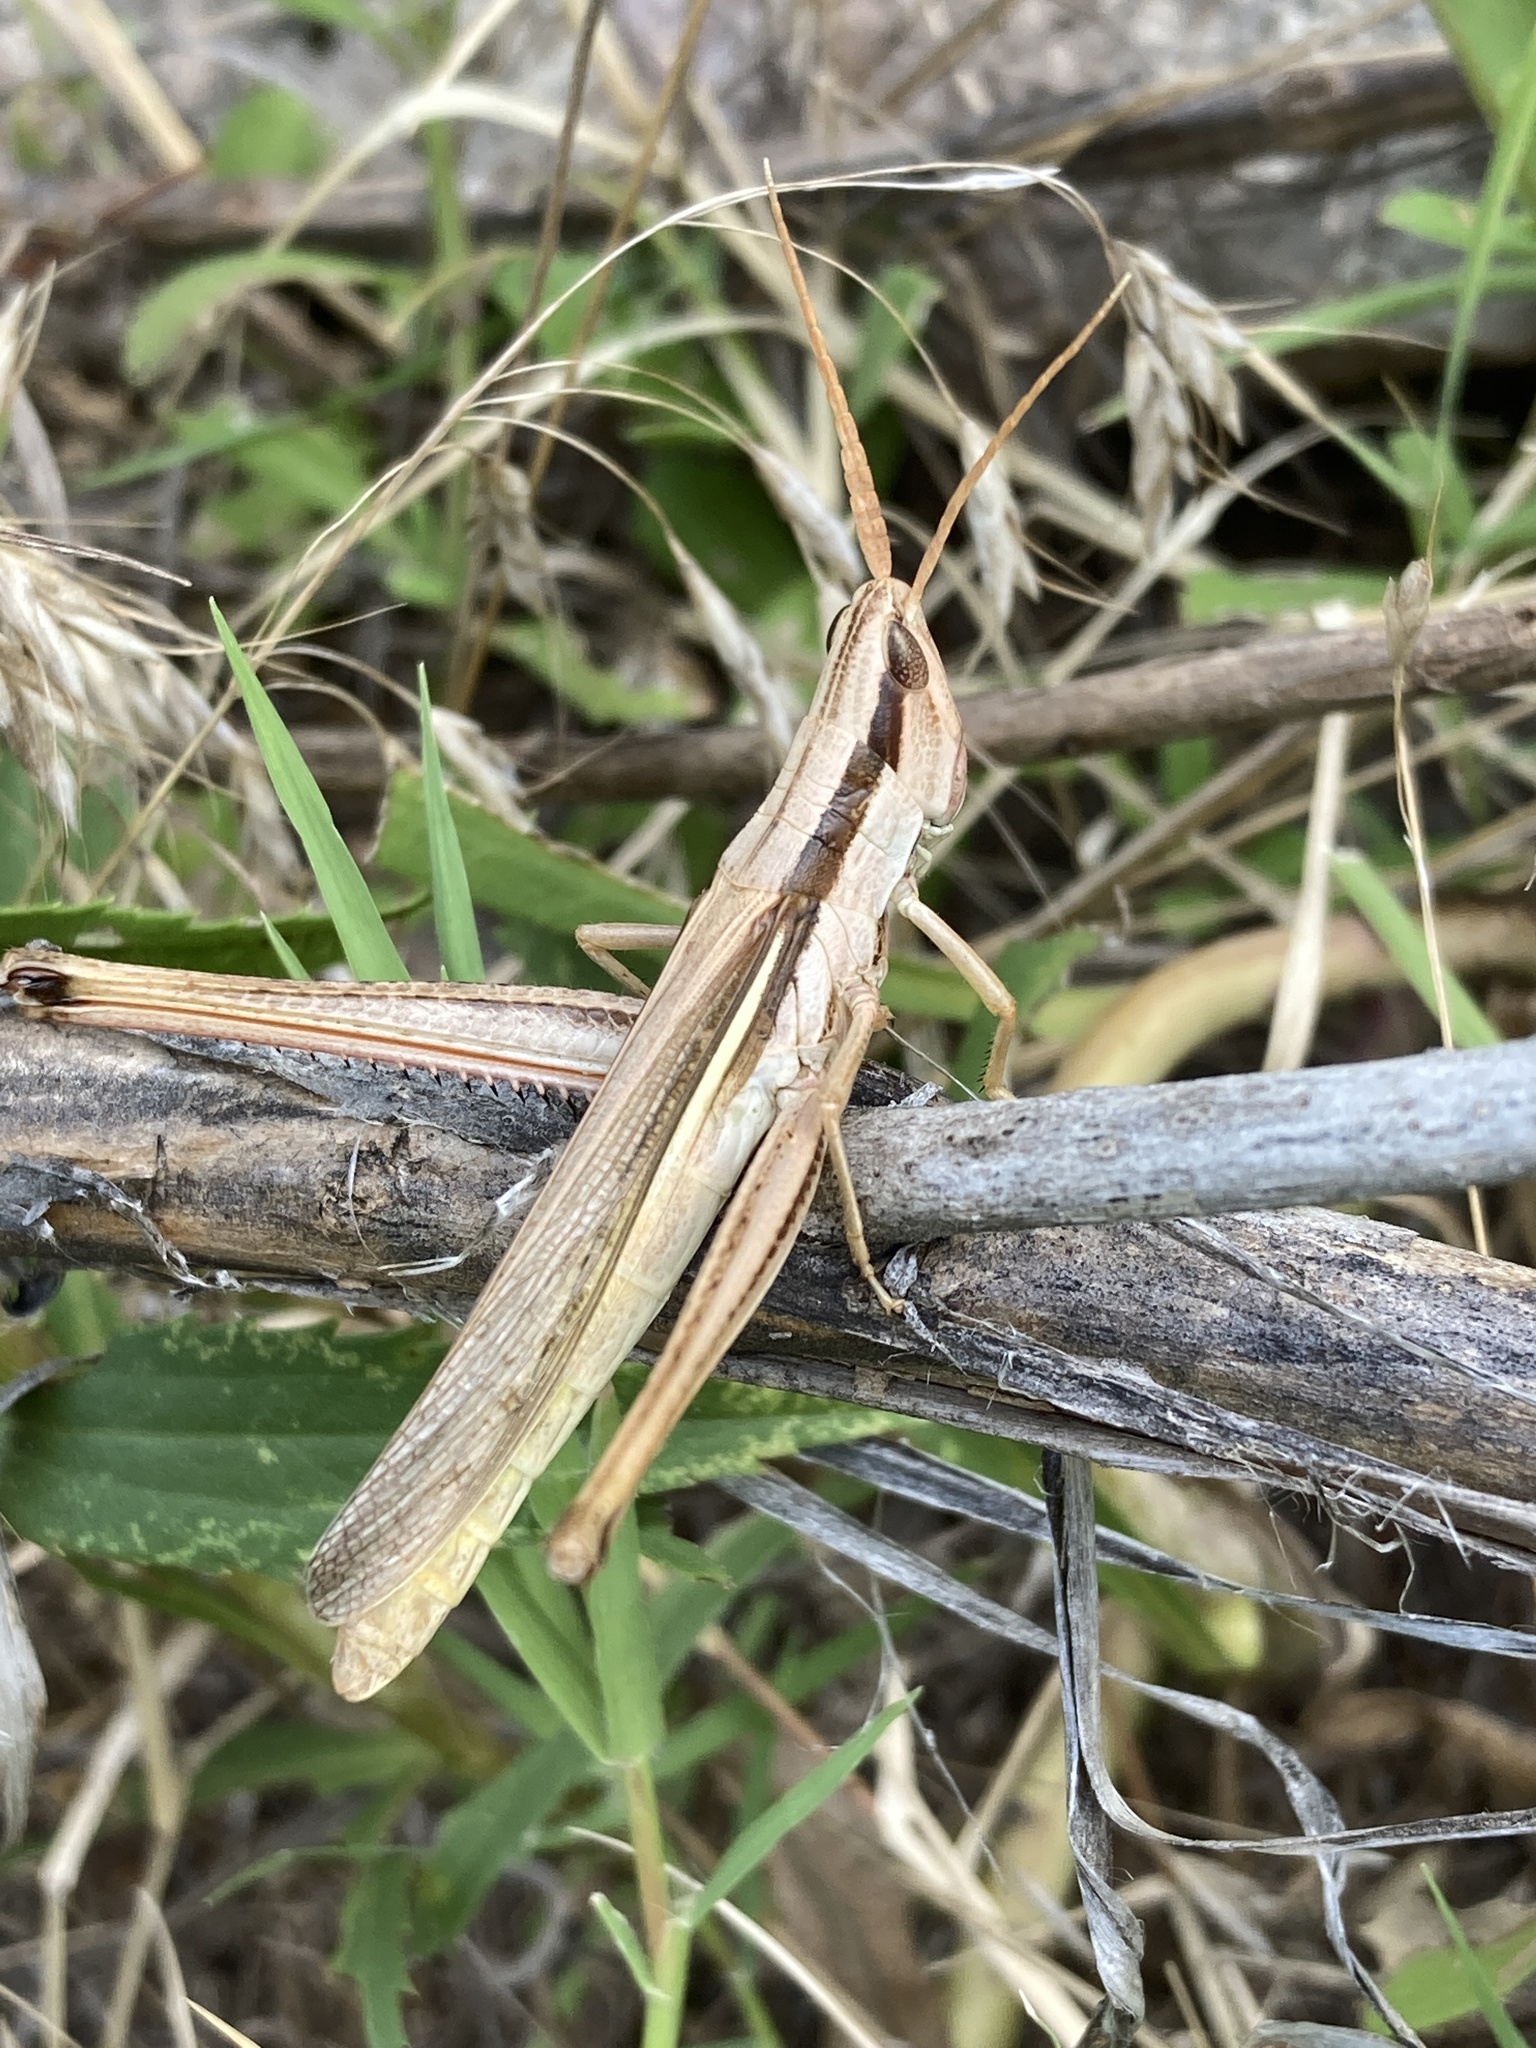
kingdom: Animalia
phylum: Arthropoda
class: Insecta
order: Orthoptera
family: Acrididae
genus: Mermiria
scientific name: Mermiria bivittata
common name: Two-striped mermiria grasshopper
